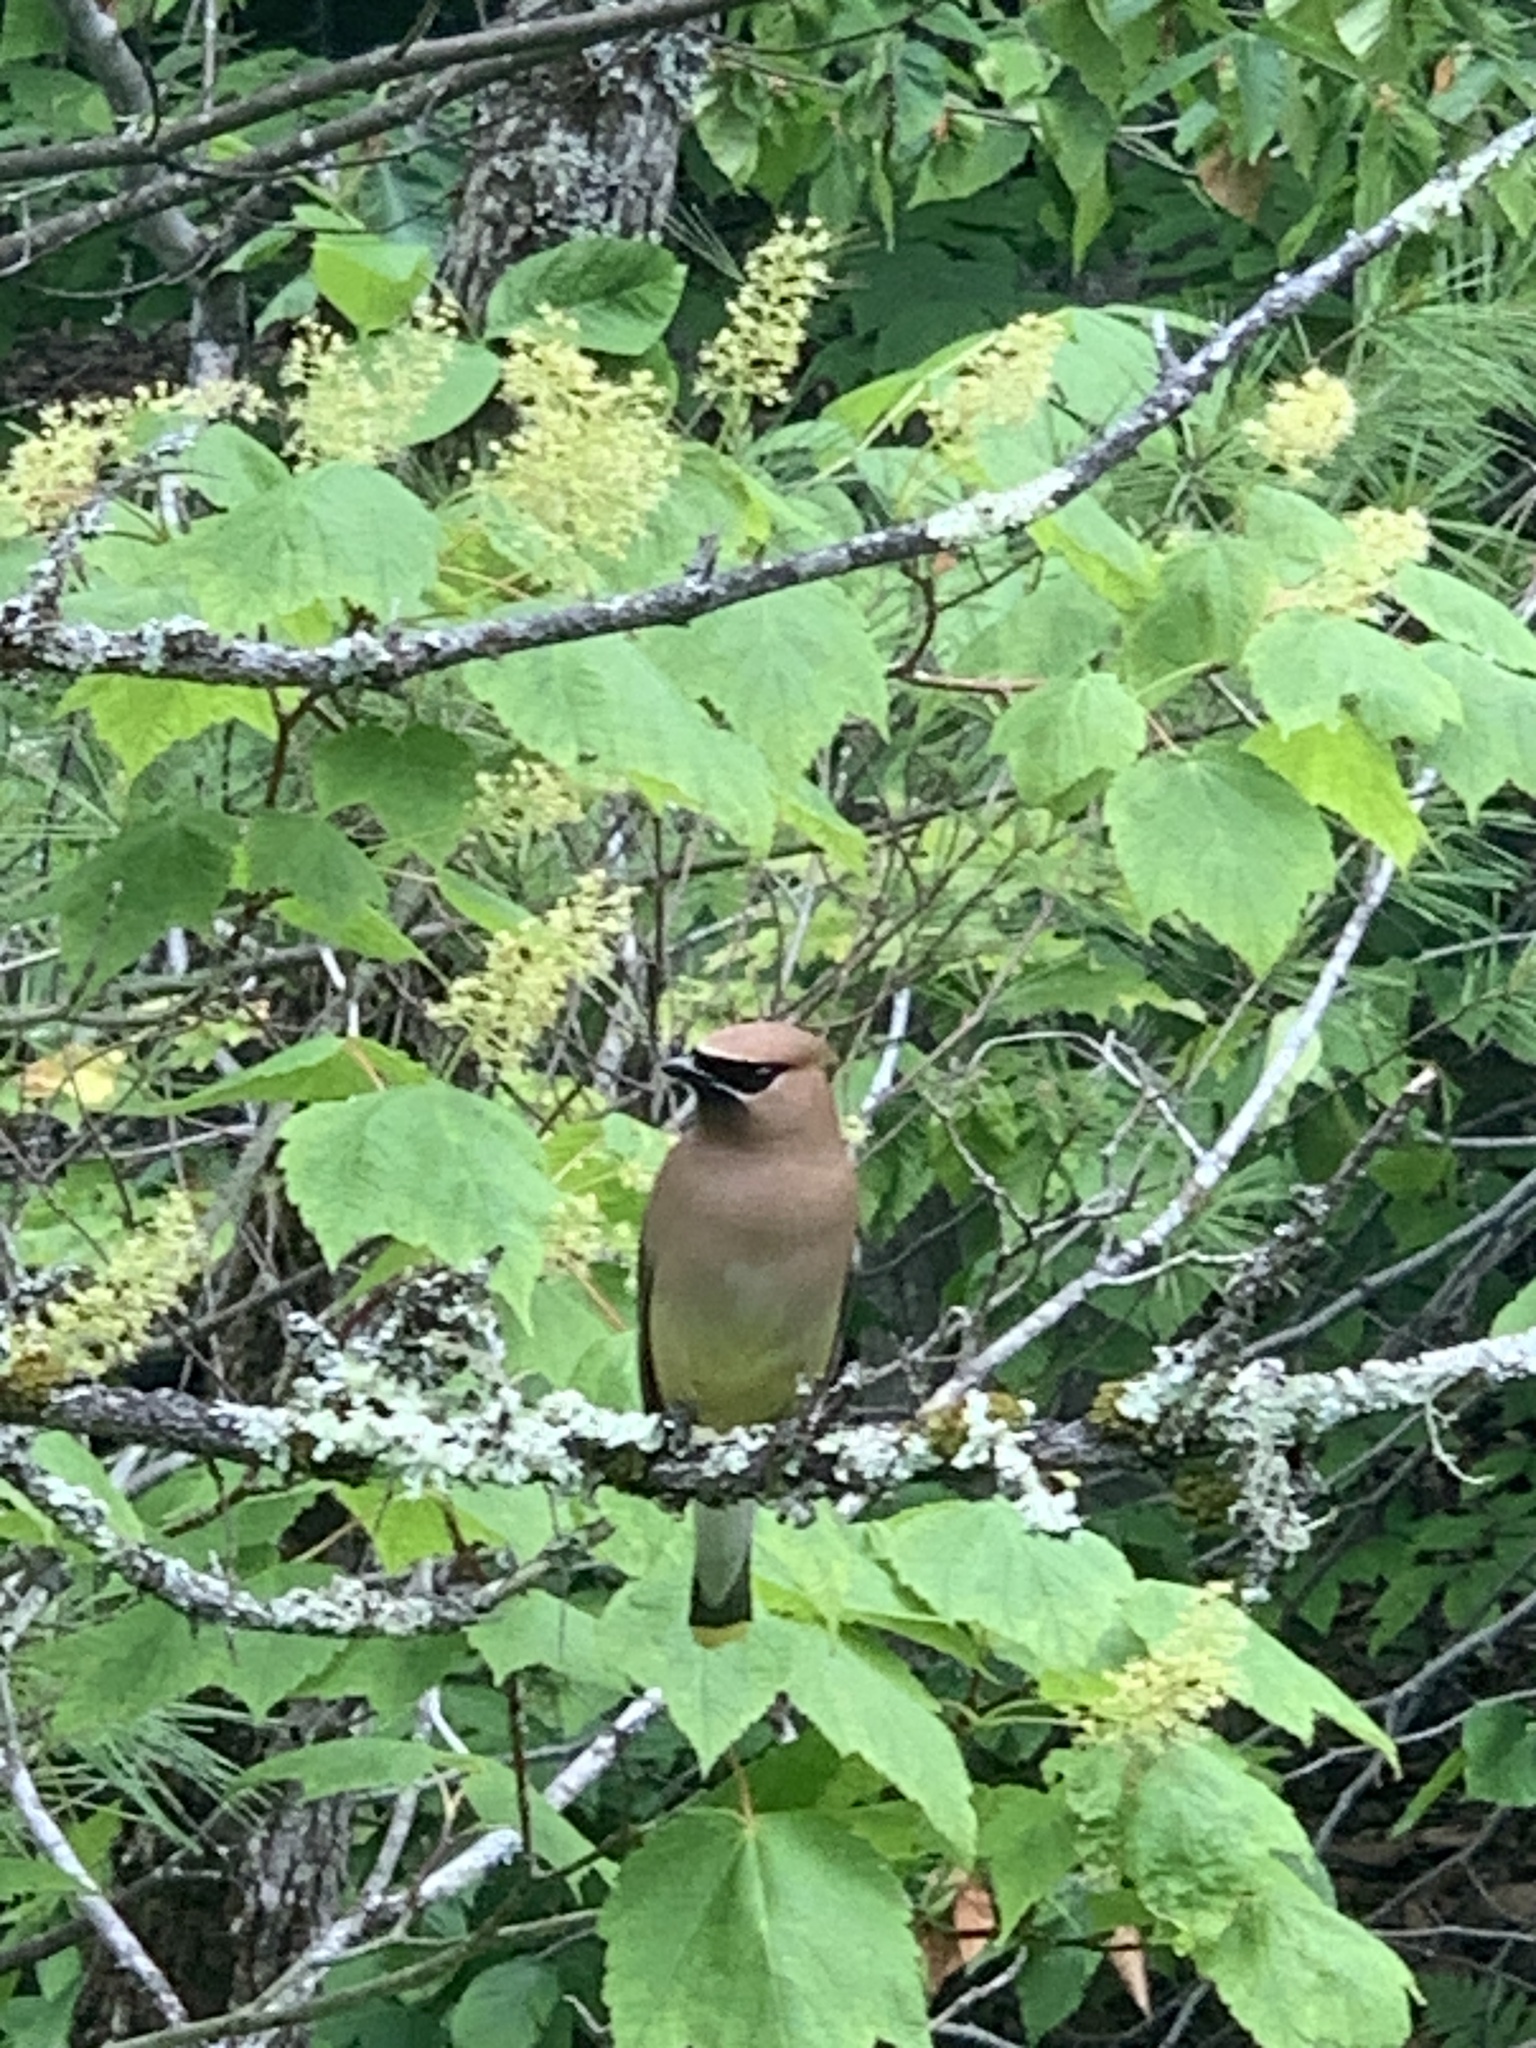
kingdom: Animalia
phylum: Chordata
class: Aves
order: Passeriformes
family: Bombycillidae
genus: Bombycilla
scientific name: Bombycilla cedrorum
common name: Cedar waxwing
